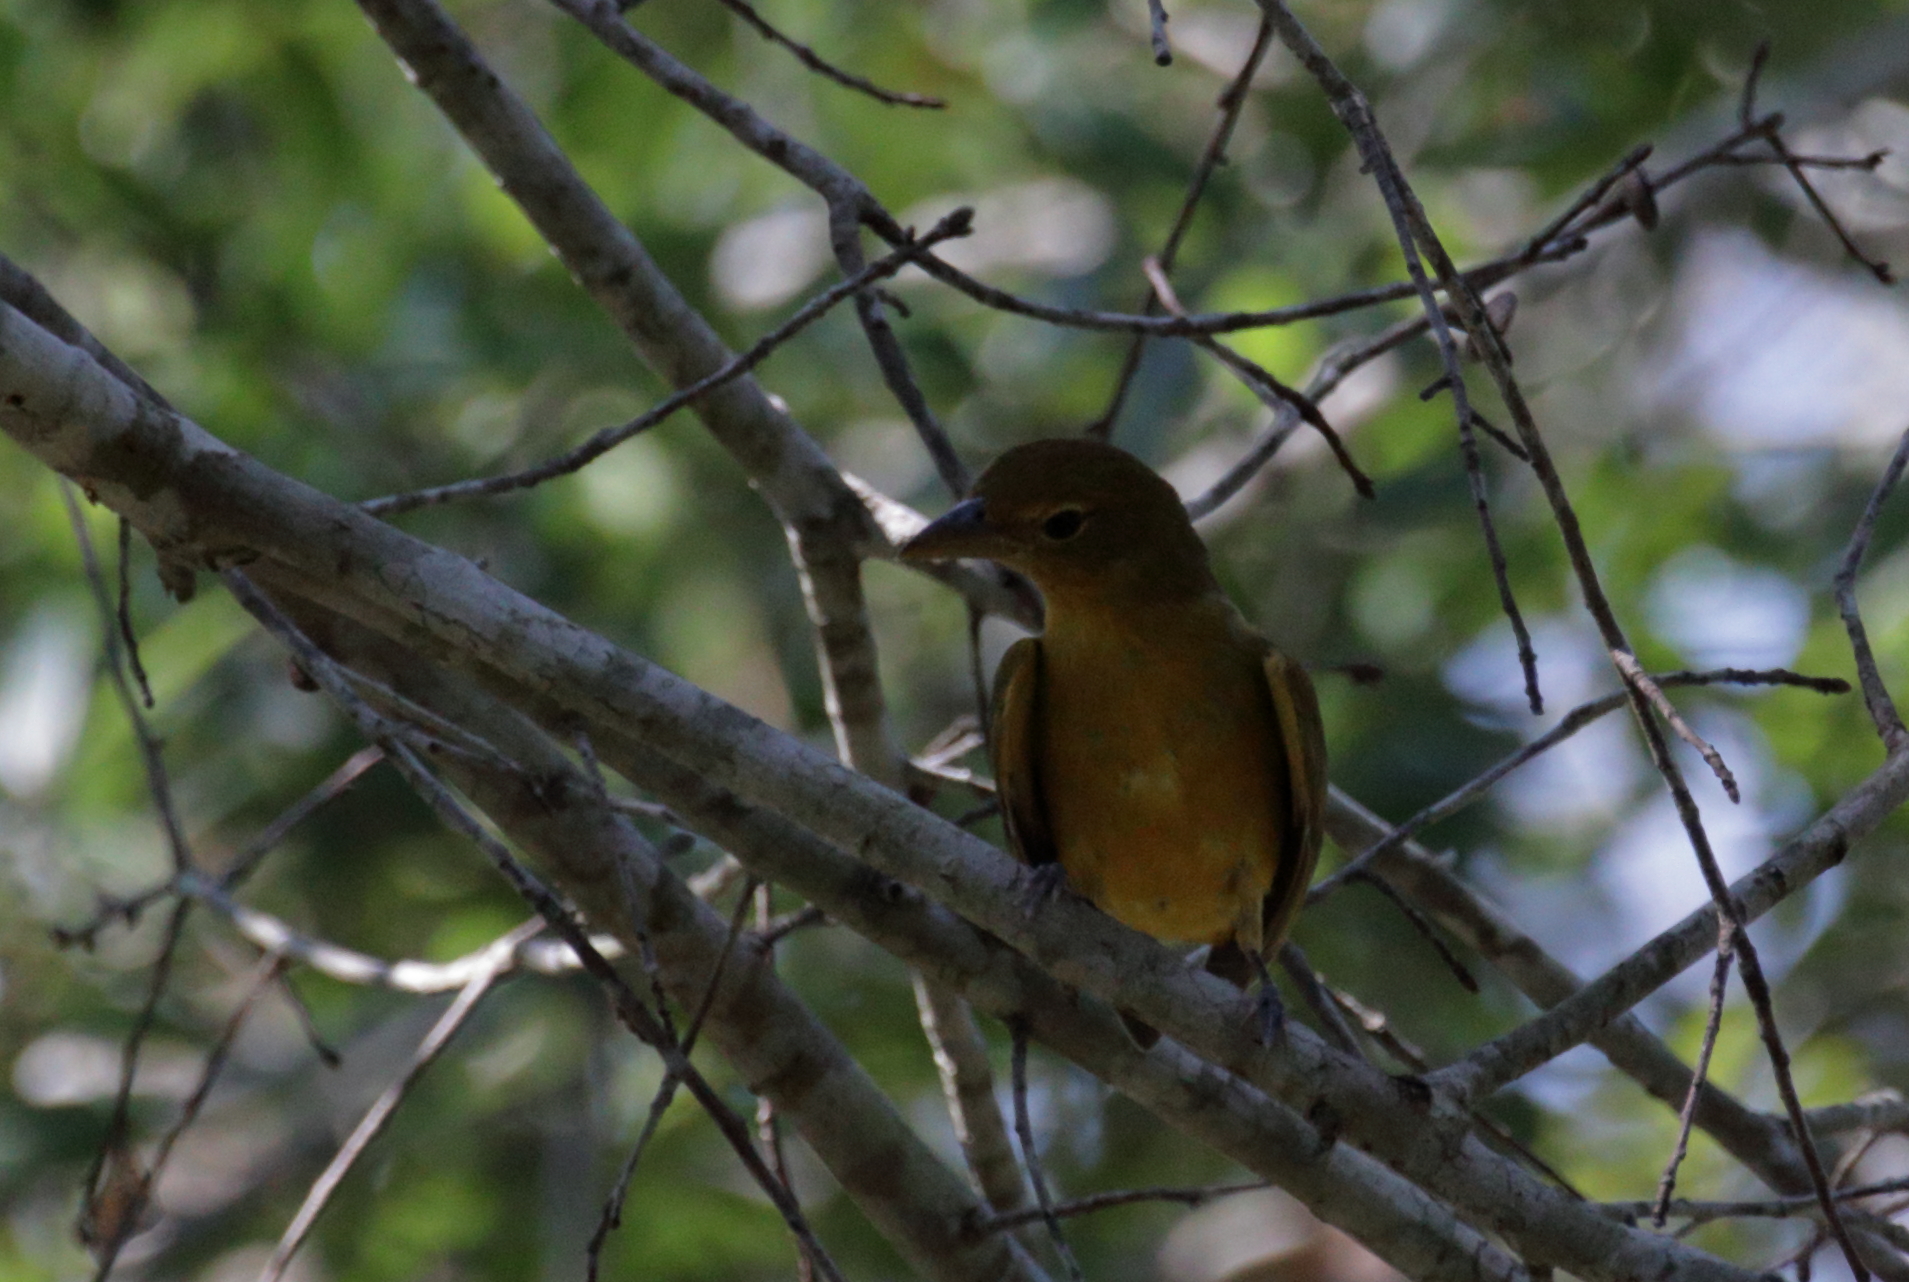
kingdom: Animalia
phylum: Chordata
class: Aves
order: Passeriformes
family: Cardinalidae
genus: Piranga
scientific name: Piranga rubra
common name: Summer tanager
